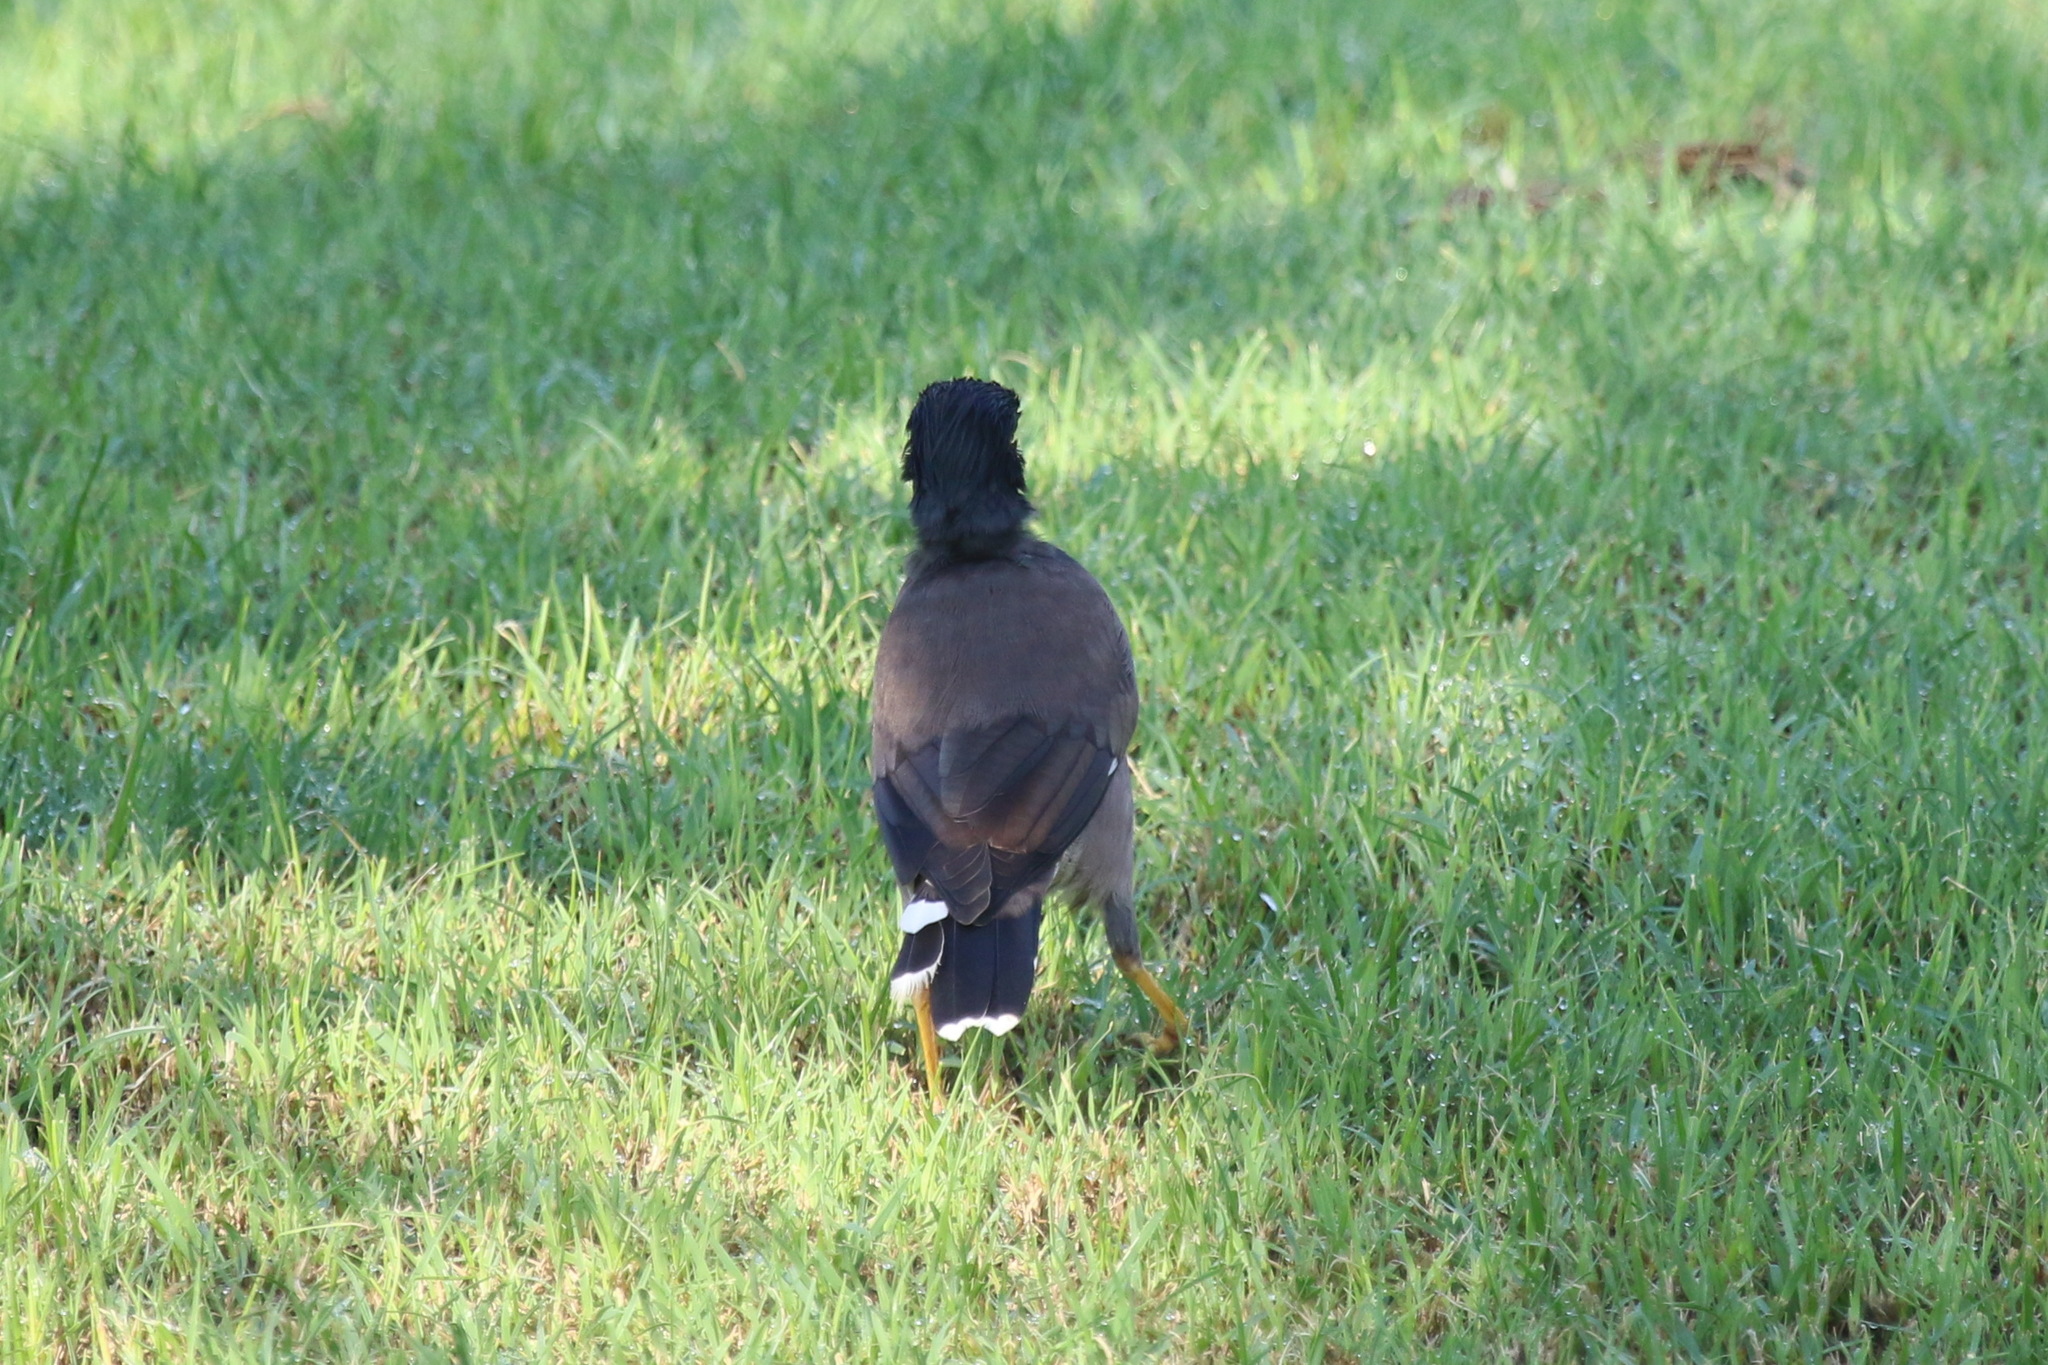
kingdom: Animalia
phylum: Chordata
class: Aves
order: Passeriformes
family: Sturnidae
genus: Acridotheres
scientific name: Acridotheres tristis
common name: Common myna
